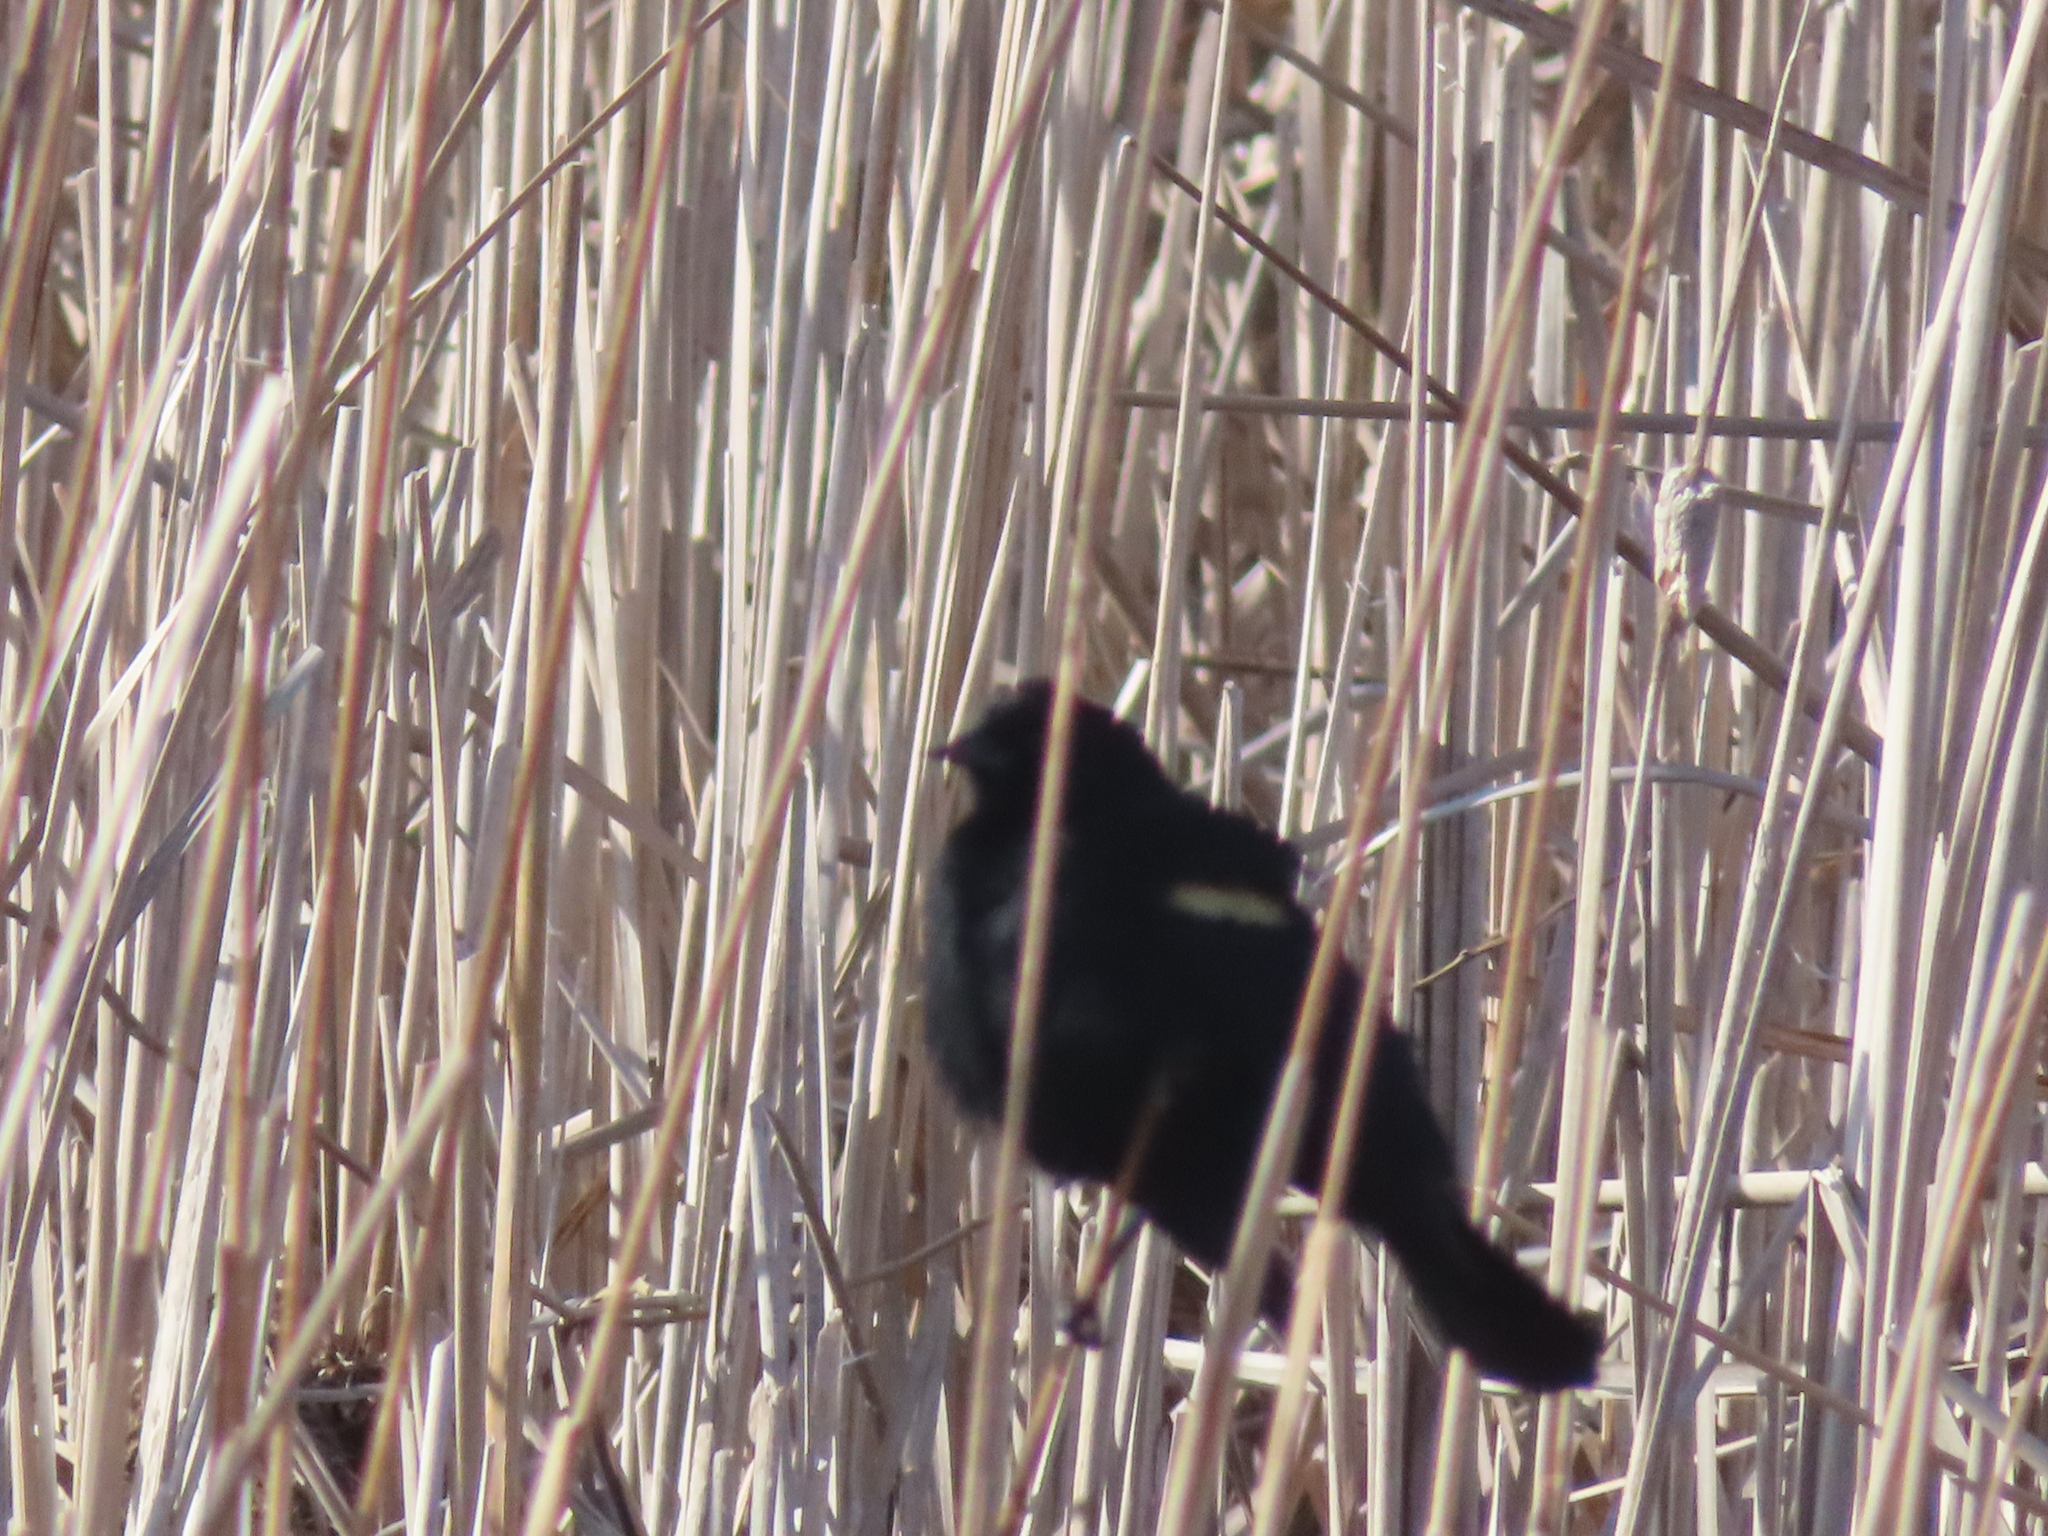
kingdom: Animalia
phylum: Chordata
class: Aves
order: Passeriformes
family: Icteridae
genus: Agelaius
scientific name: Agelaius phoeniceus
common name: Red-winged blackbird
